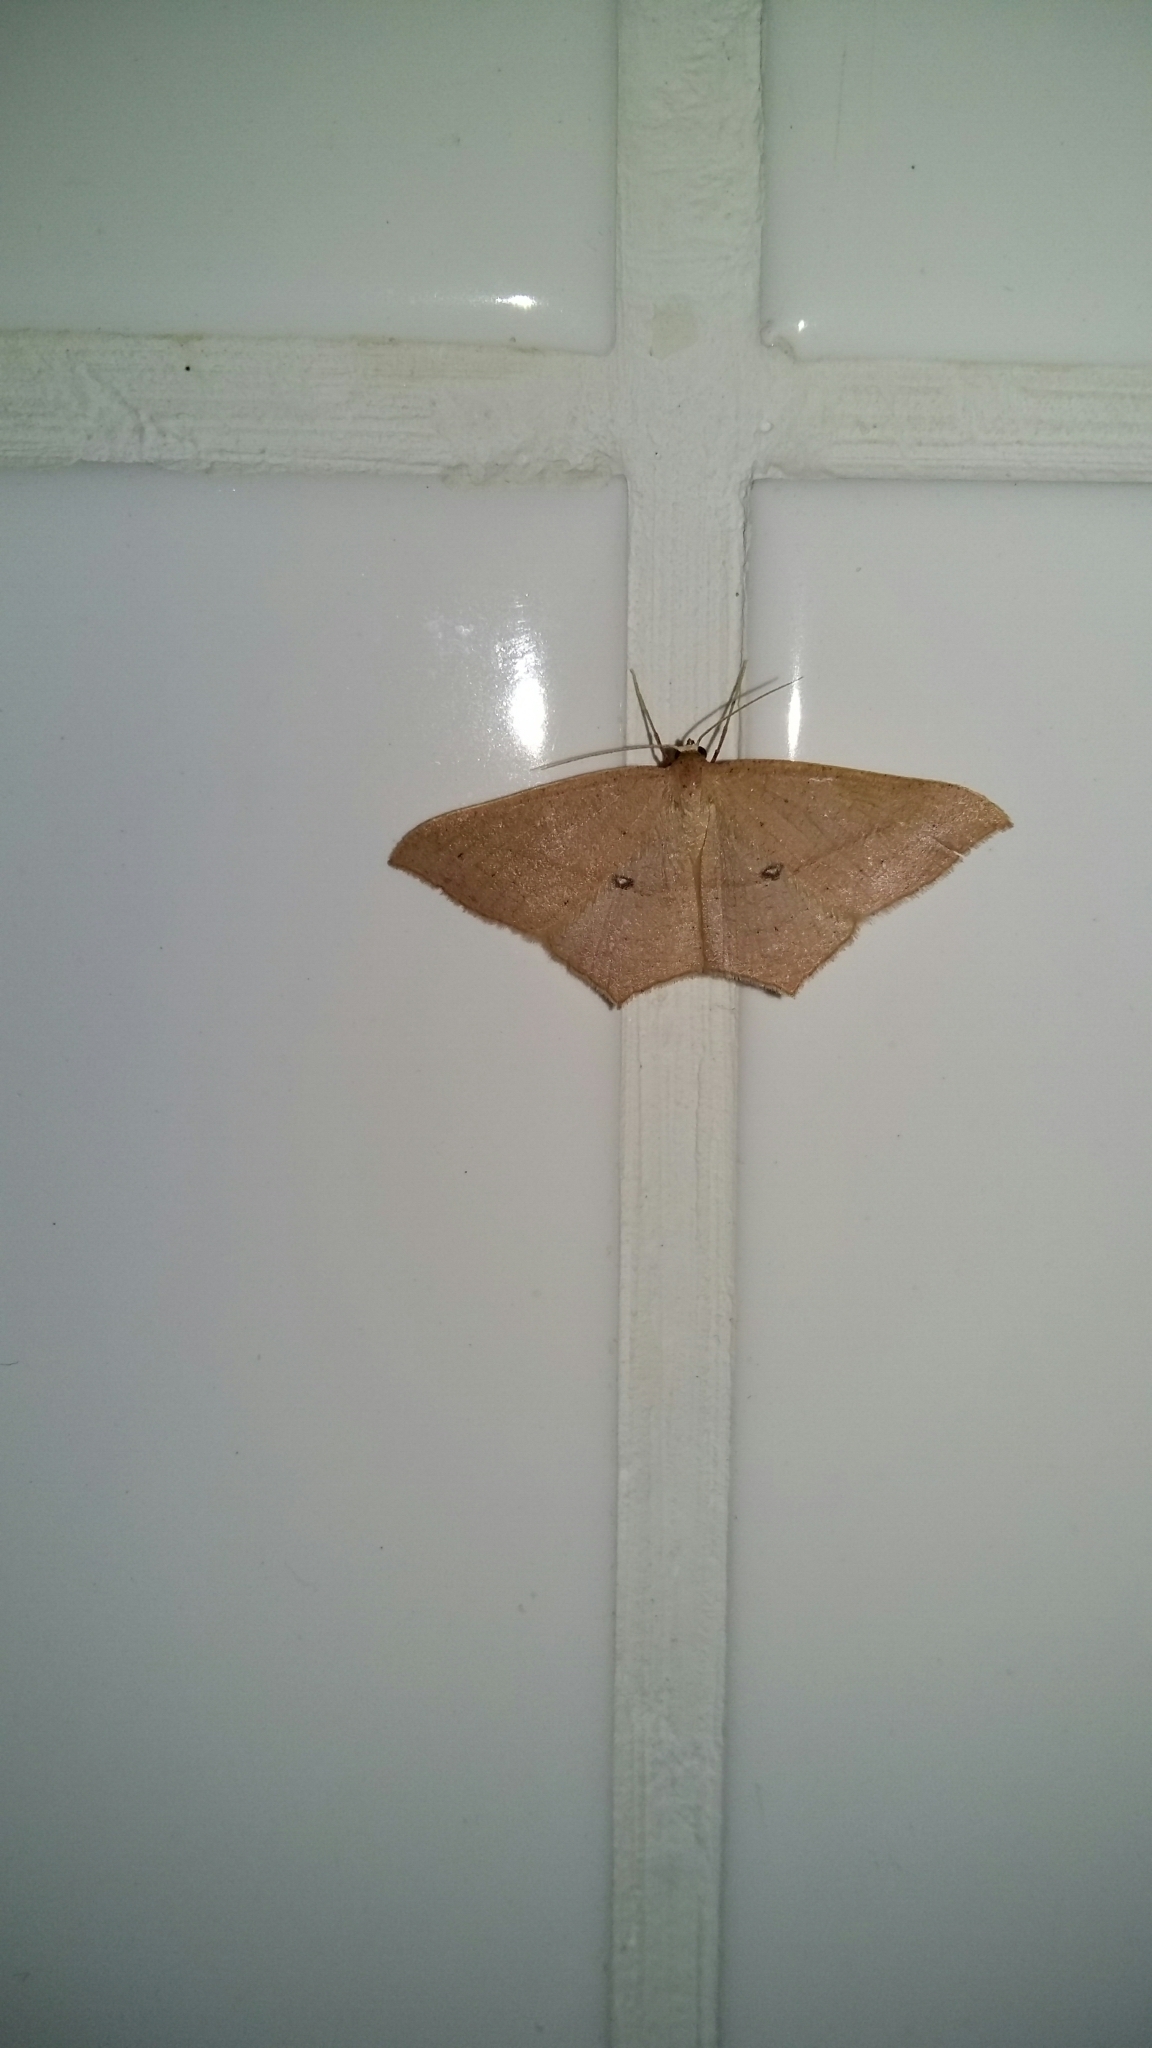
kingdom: Animalia
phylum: Arthropoda
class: Insecta
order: Lepidoptera
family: Geometridae
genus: Traminda
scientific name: Traminda ocellata
